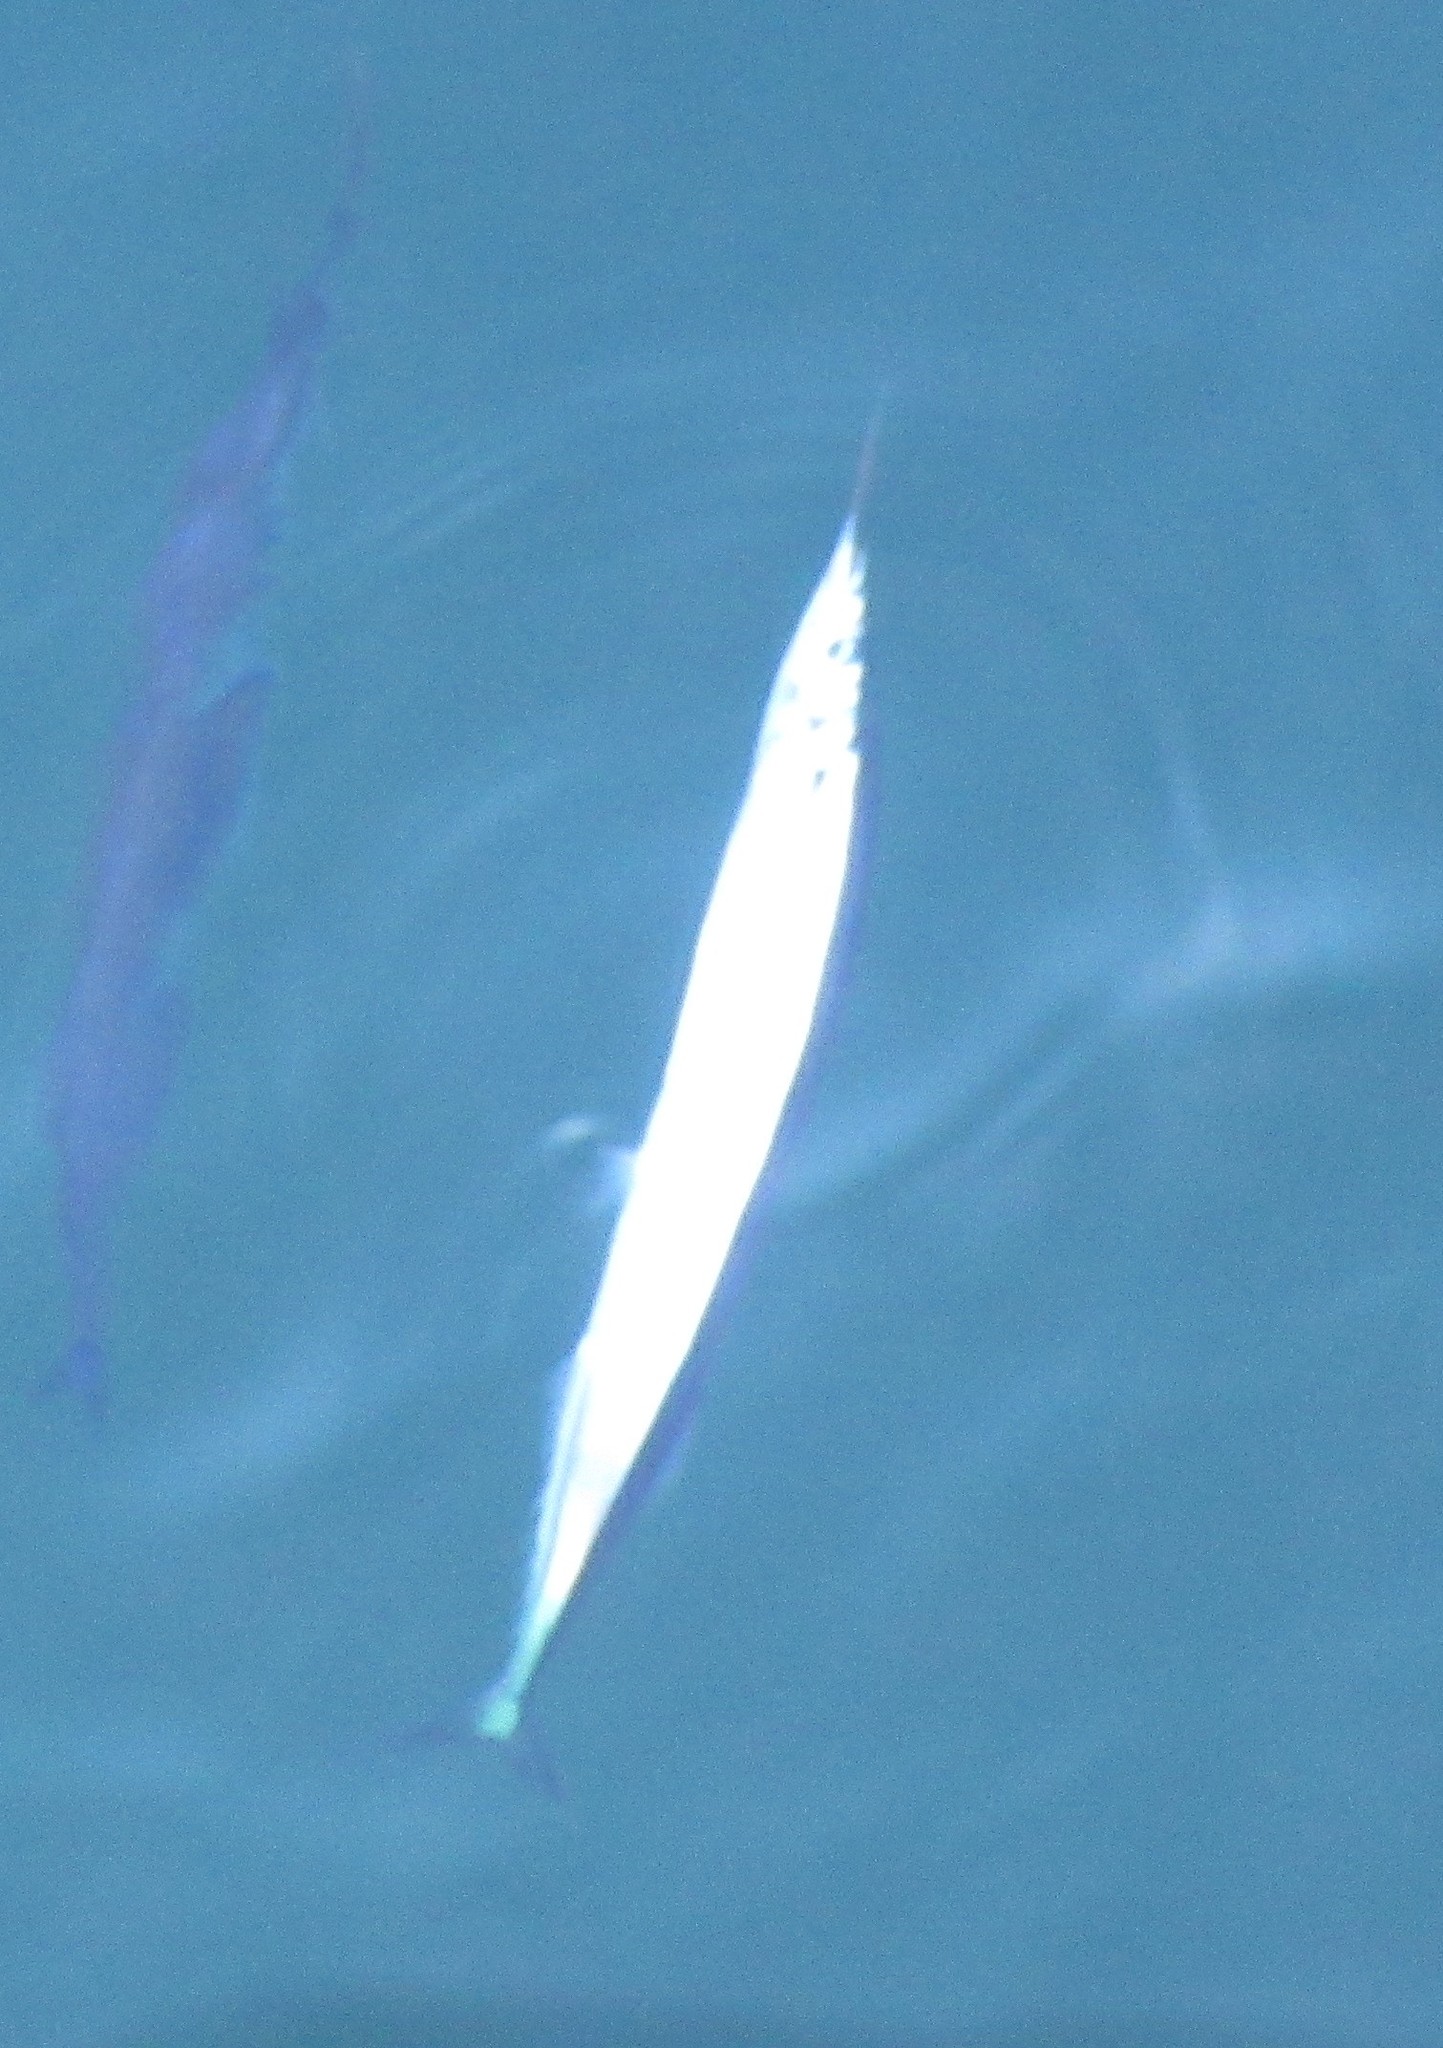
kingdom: Animalia
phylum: Chordata
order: Beloniformes
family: Scomberesocidae
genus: Scomberesox
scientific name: Scomberesox saurus
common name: Skipper
